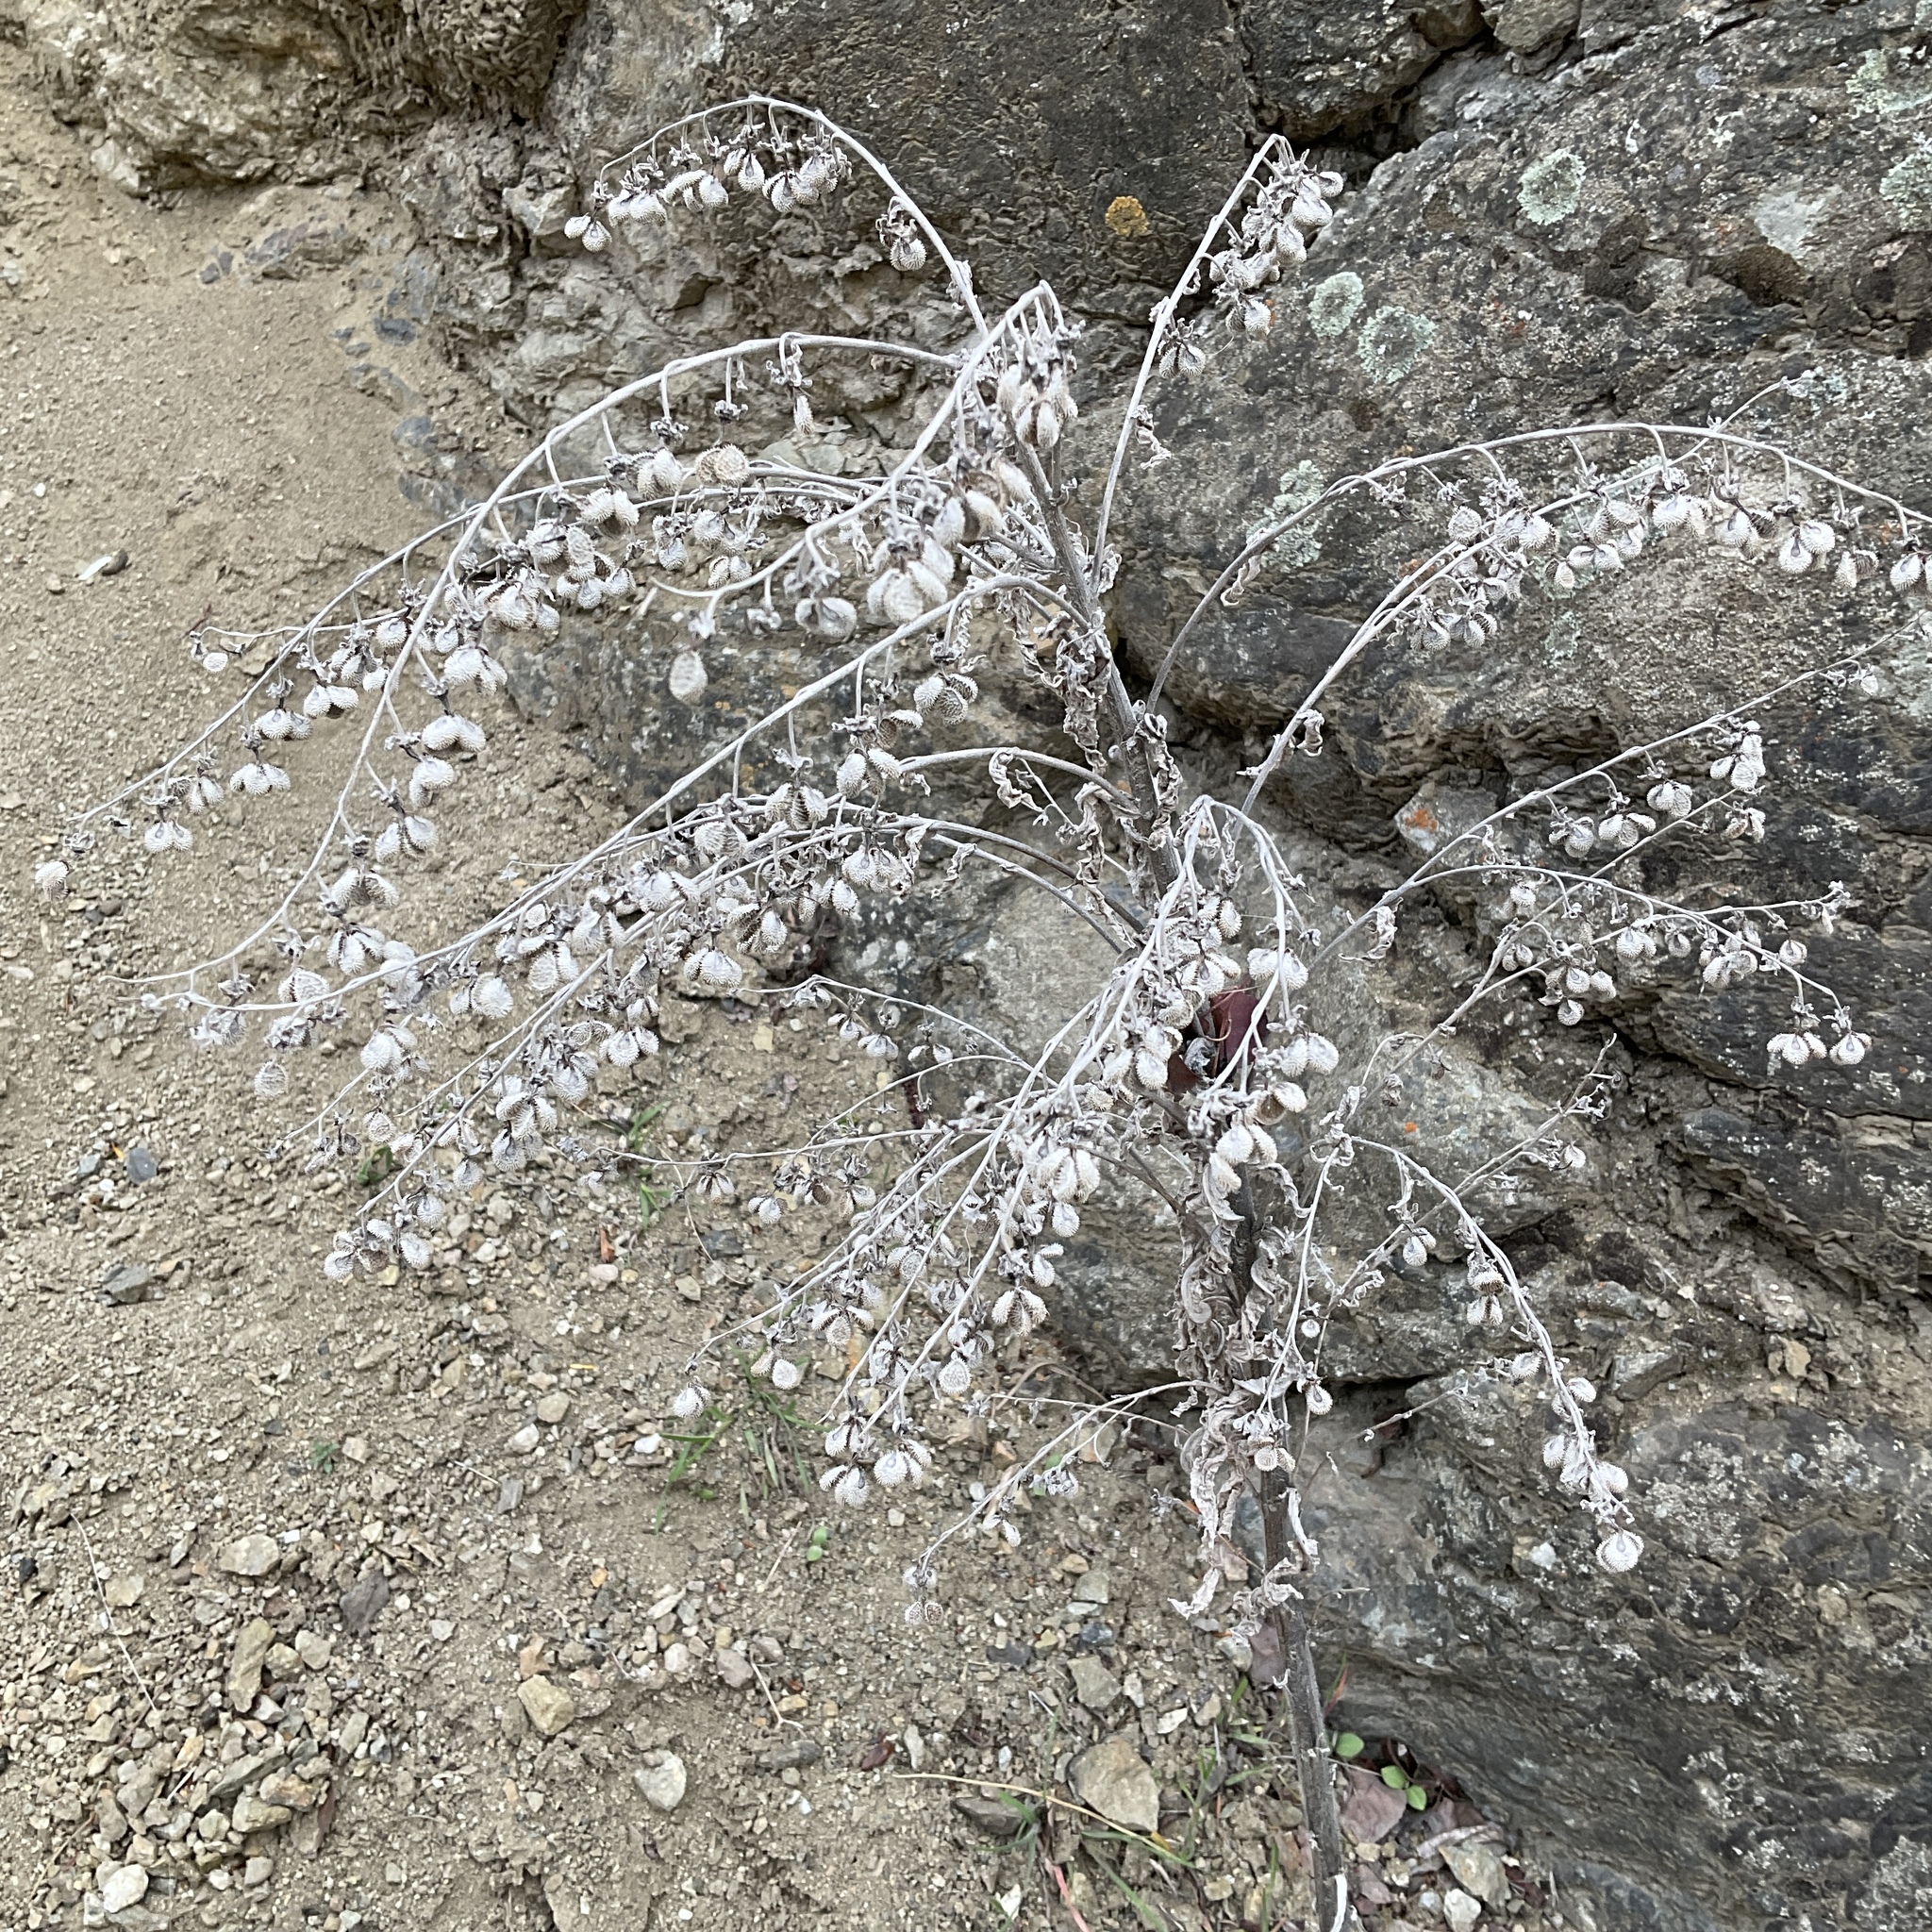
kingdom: Plantae
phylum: Tracheophyta
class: Magnoliopsida
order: Boraginales
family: Boraginaceae
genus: Cynoglossum
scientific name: Cynoglossum officinale
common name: Hound's-tongue
